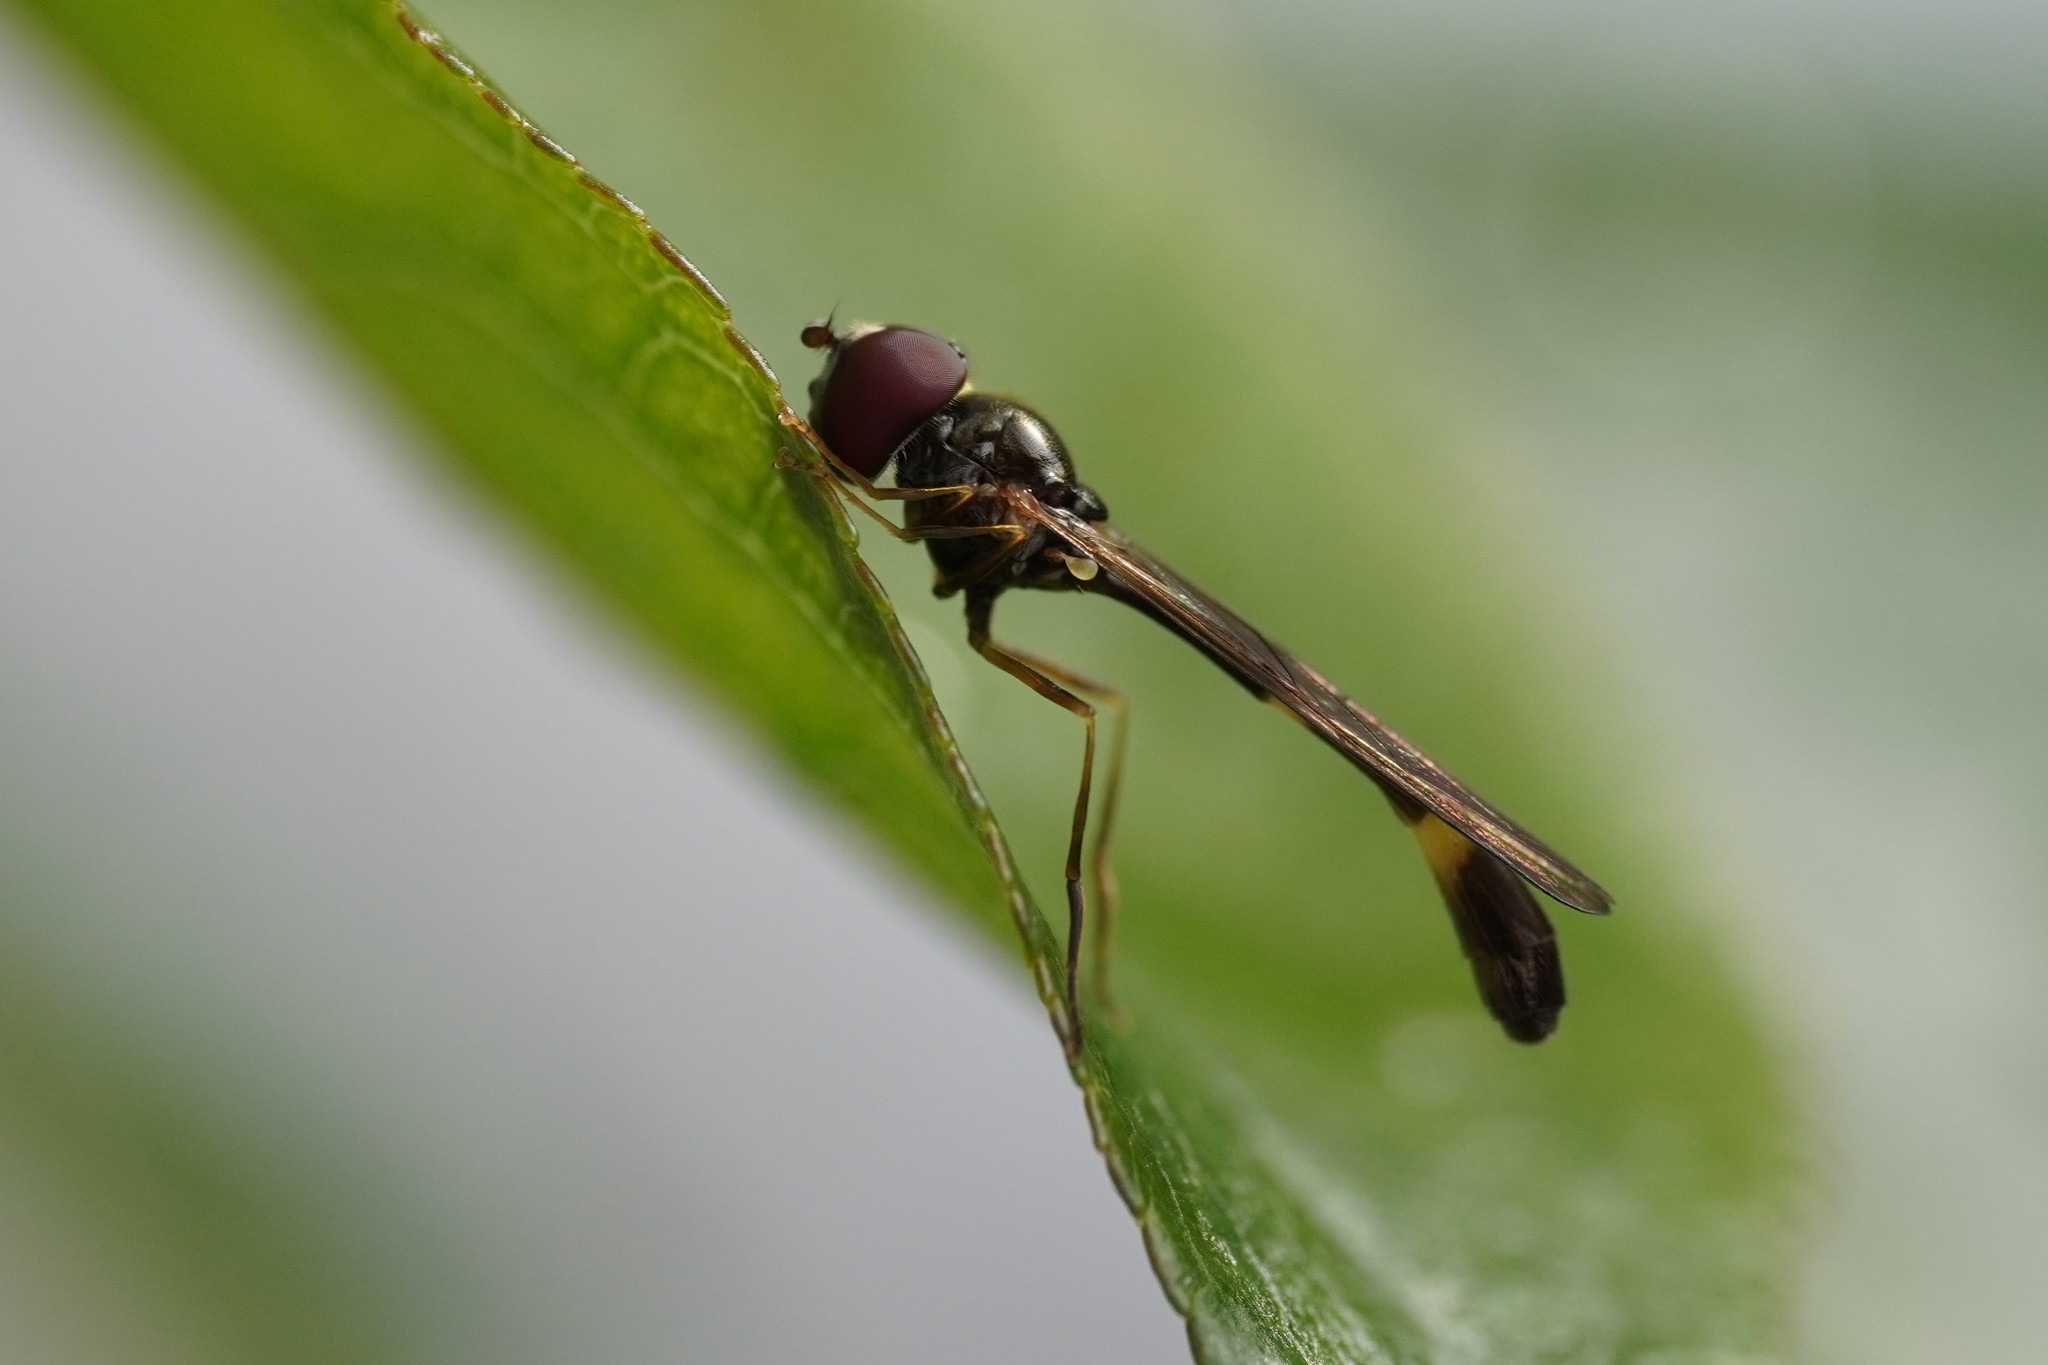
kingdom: Animalia
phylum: Arthropoda
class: Insecta
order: Diptera
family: Syrphidae
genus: Baccha
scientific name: Baccha elongata
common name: Common dainty
